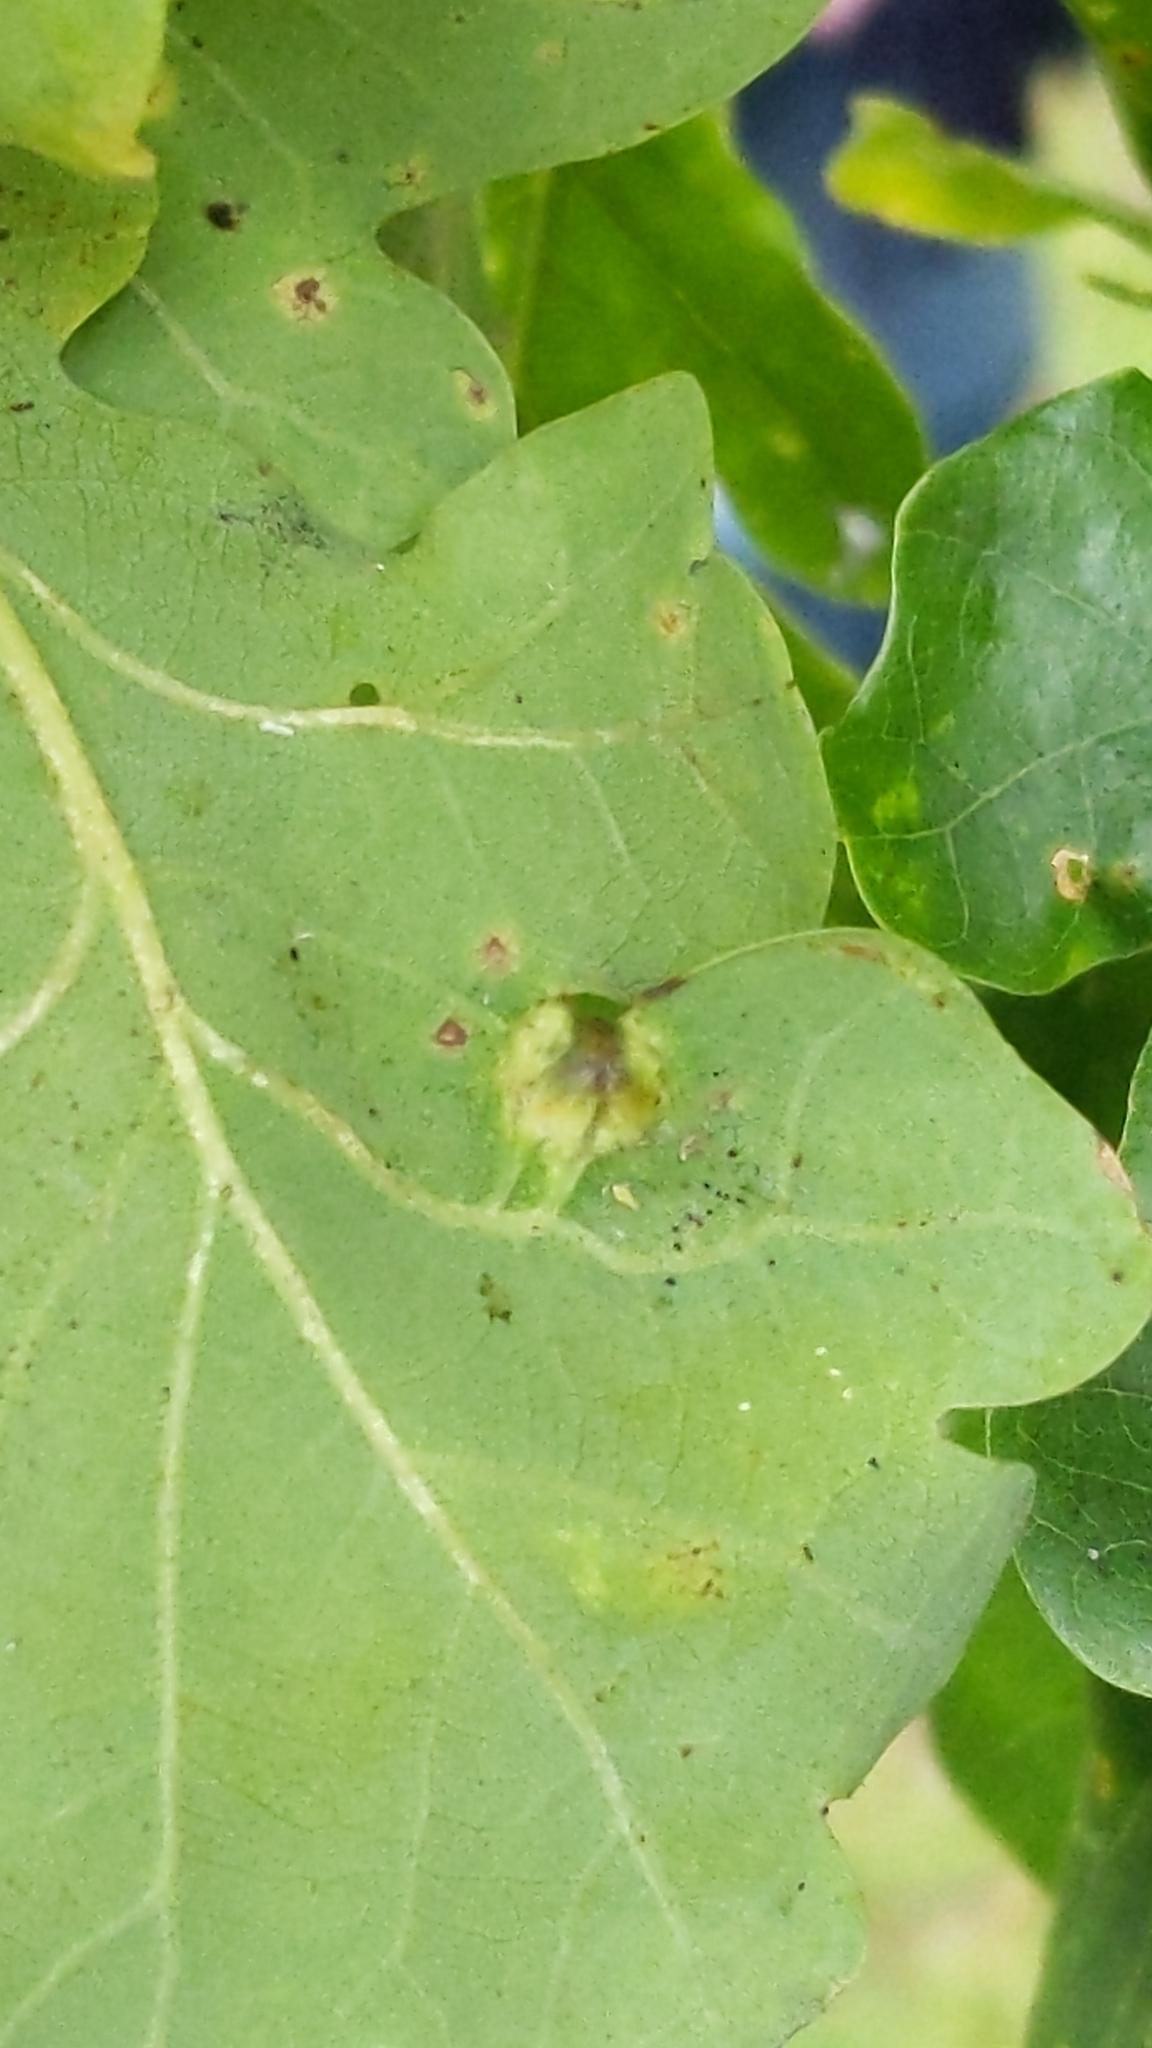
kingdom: Animalia
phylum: Arthropoda
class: Insecta
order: Hymenoptera
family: Cynipidae
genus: Andricus
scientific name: Andricus curvator
